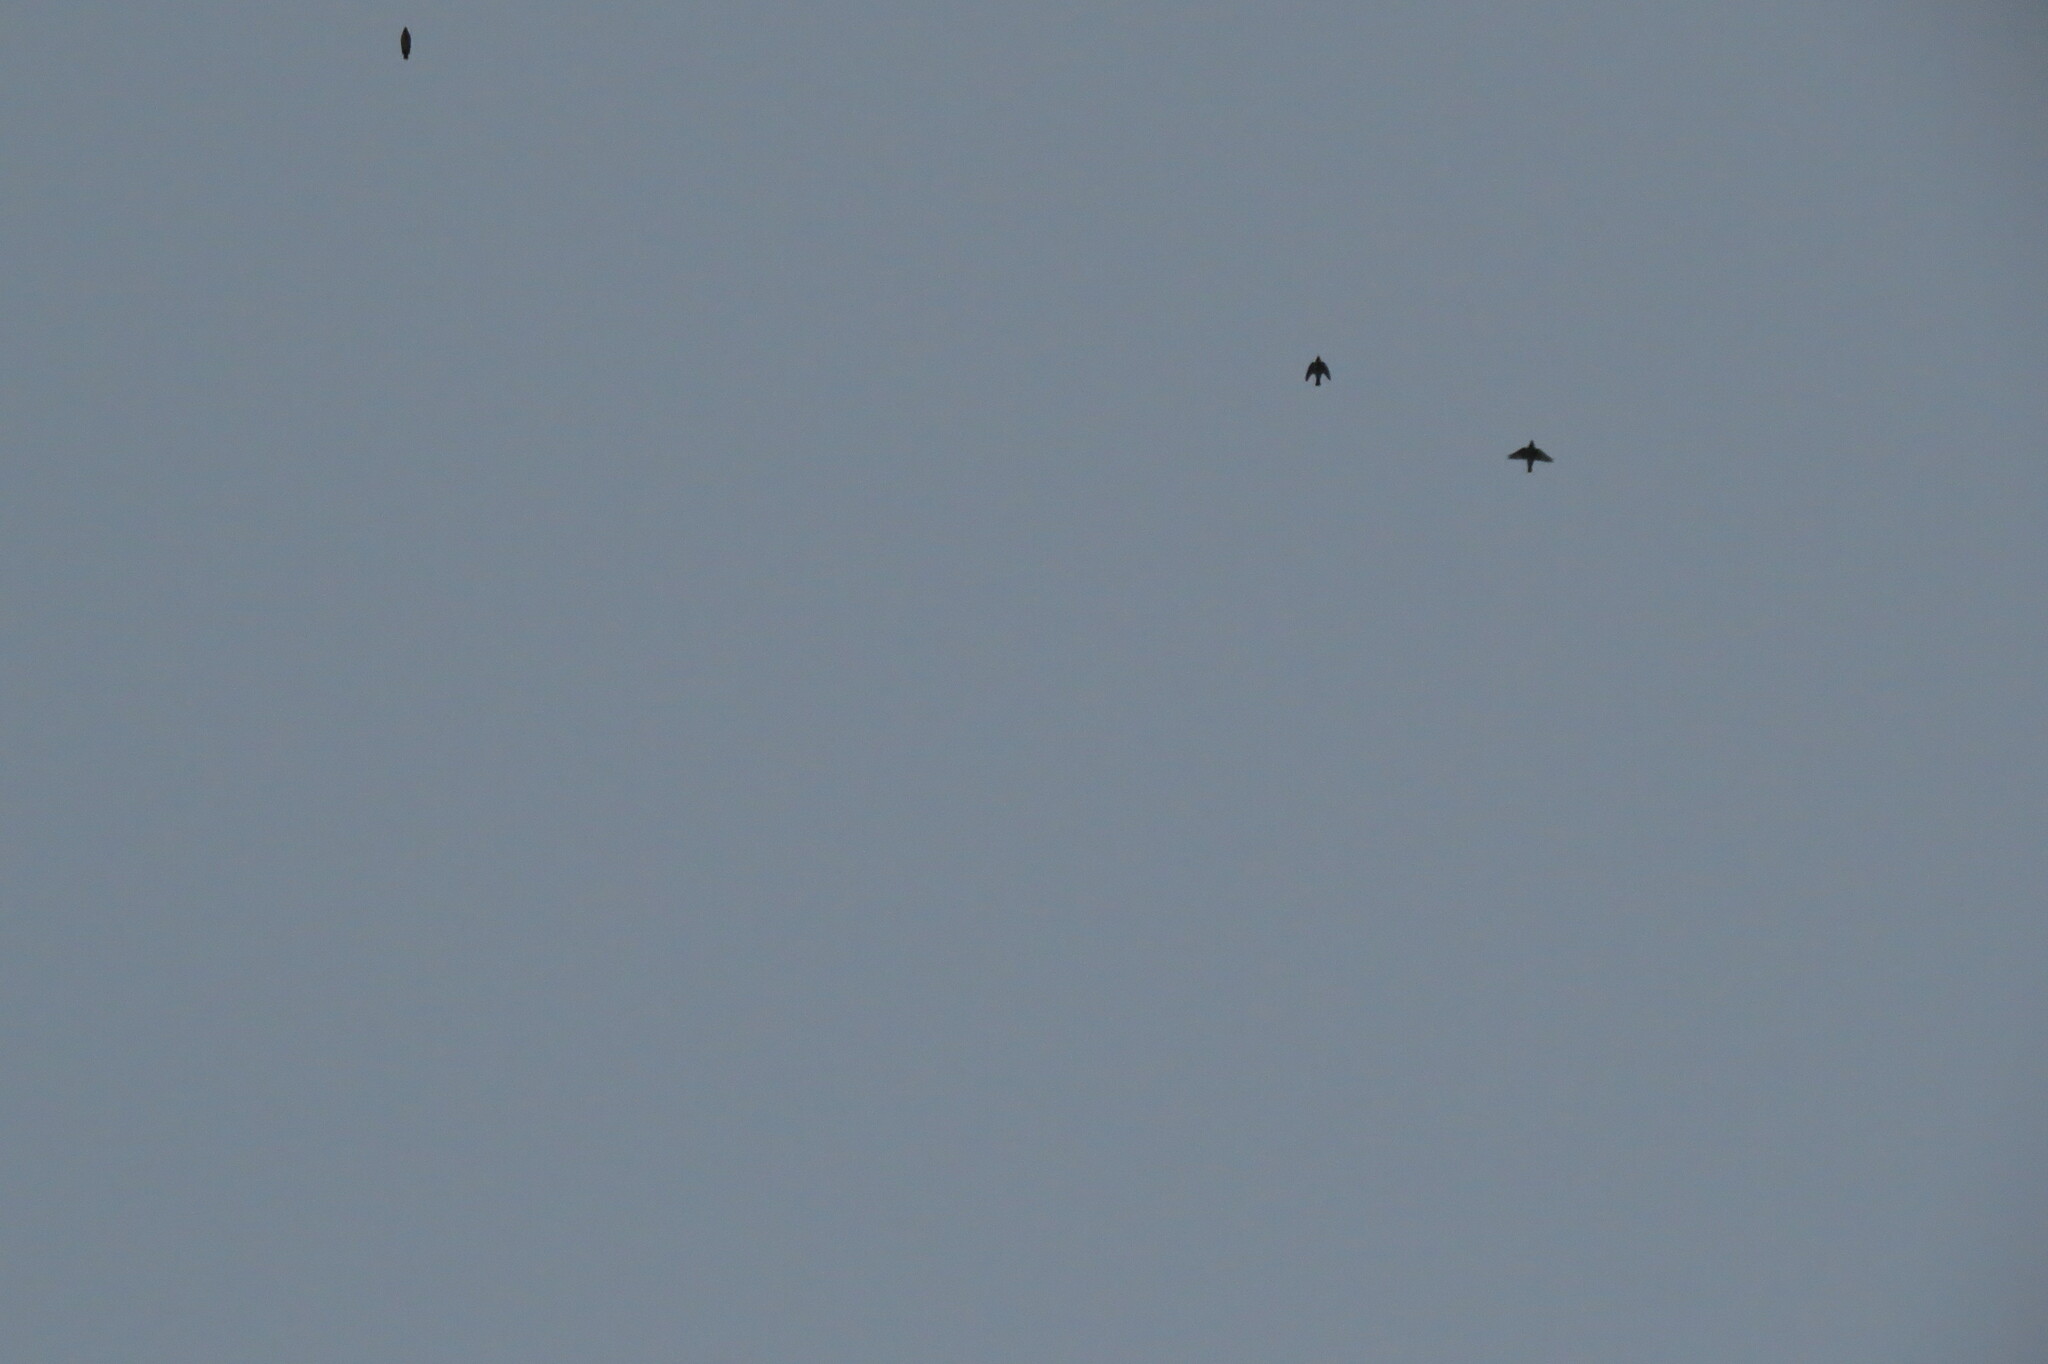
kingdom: Animalia
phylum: Chordata
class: Aves
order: Passeriformes
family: Bombycillidae
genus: Bombycilla
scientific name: Bombycilla garrulus
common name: Bohemian waxwing
